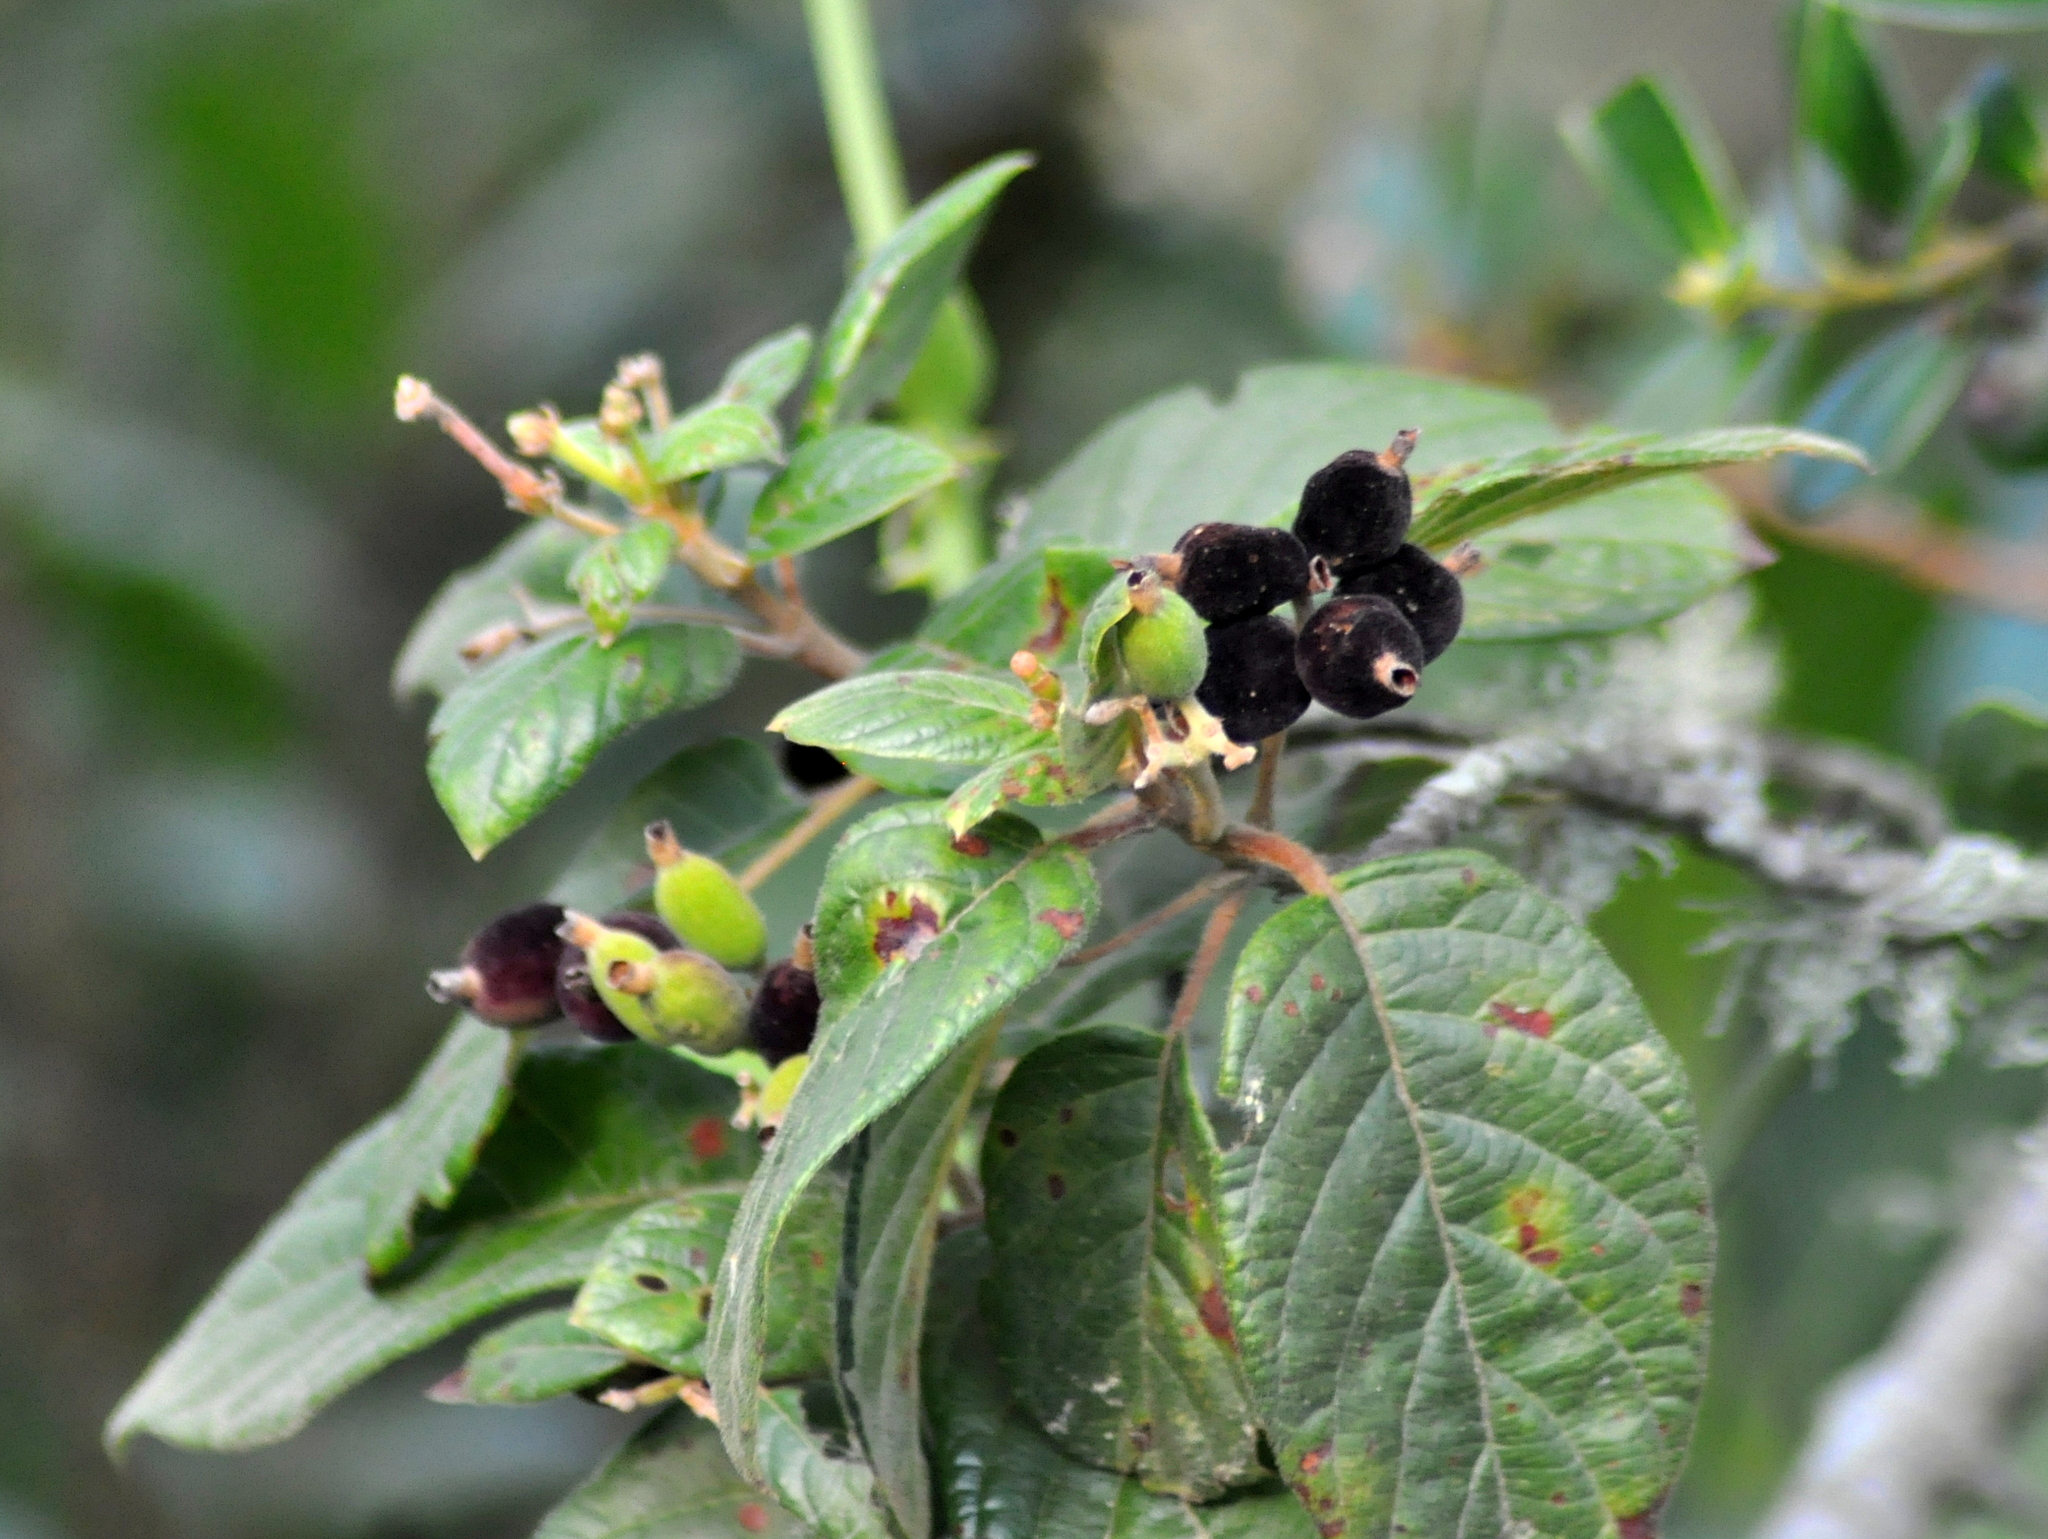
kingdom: Plantae
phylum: Tracheophyta
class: Magnoliopsida
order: Gentianales
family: Rubiaceae
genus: Guettarda
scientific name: Guettarda uruguensis
